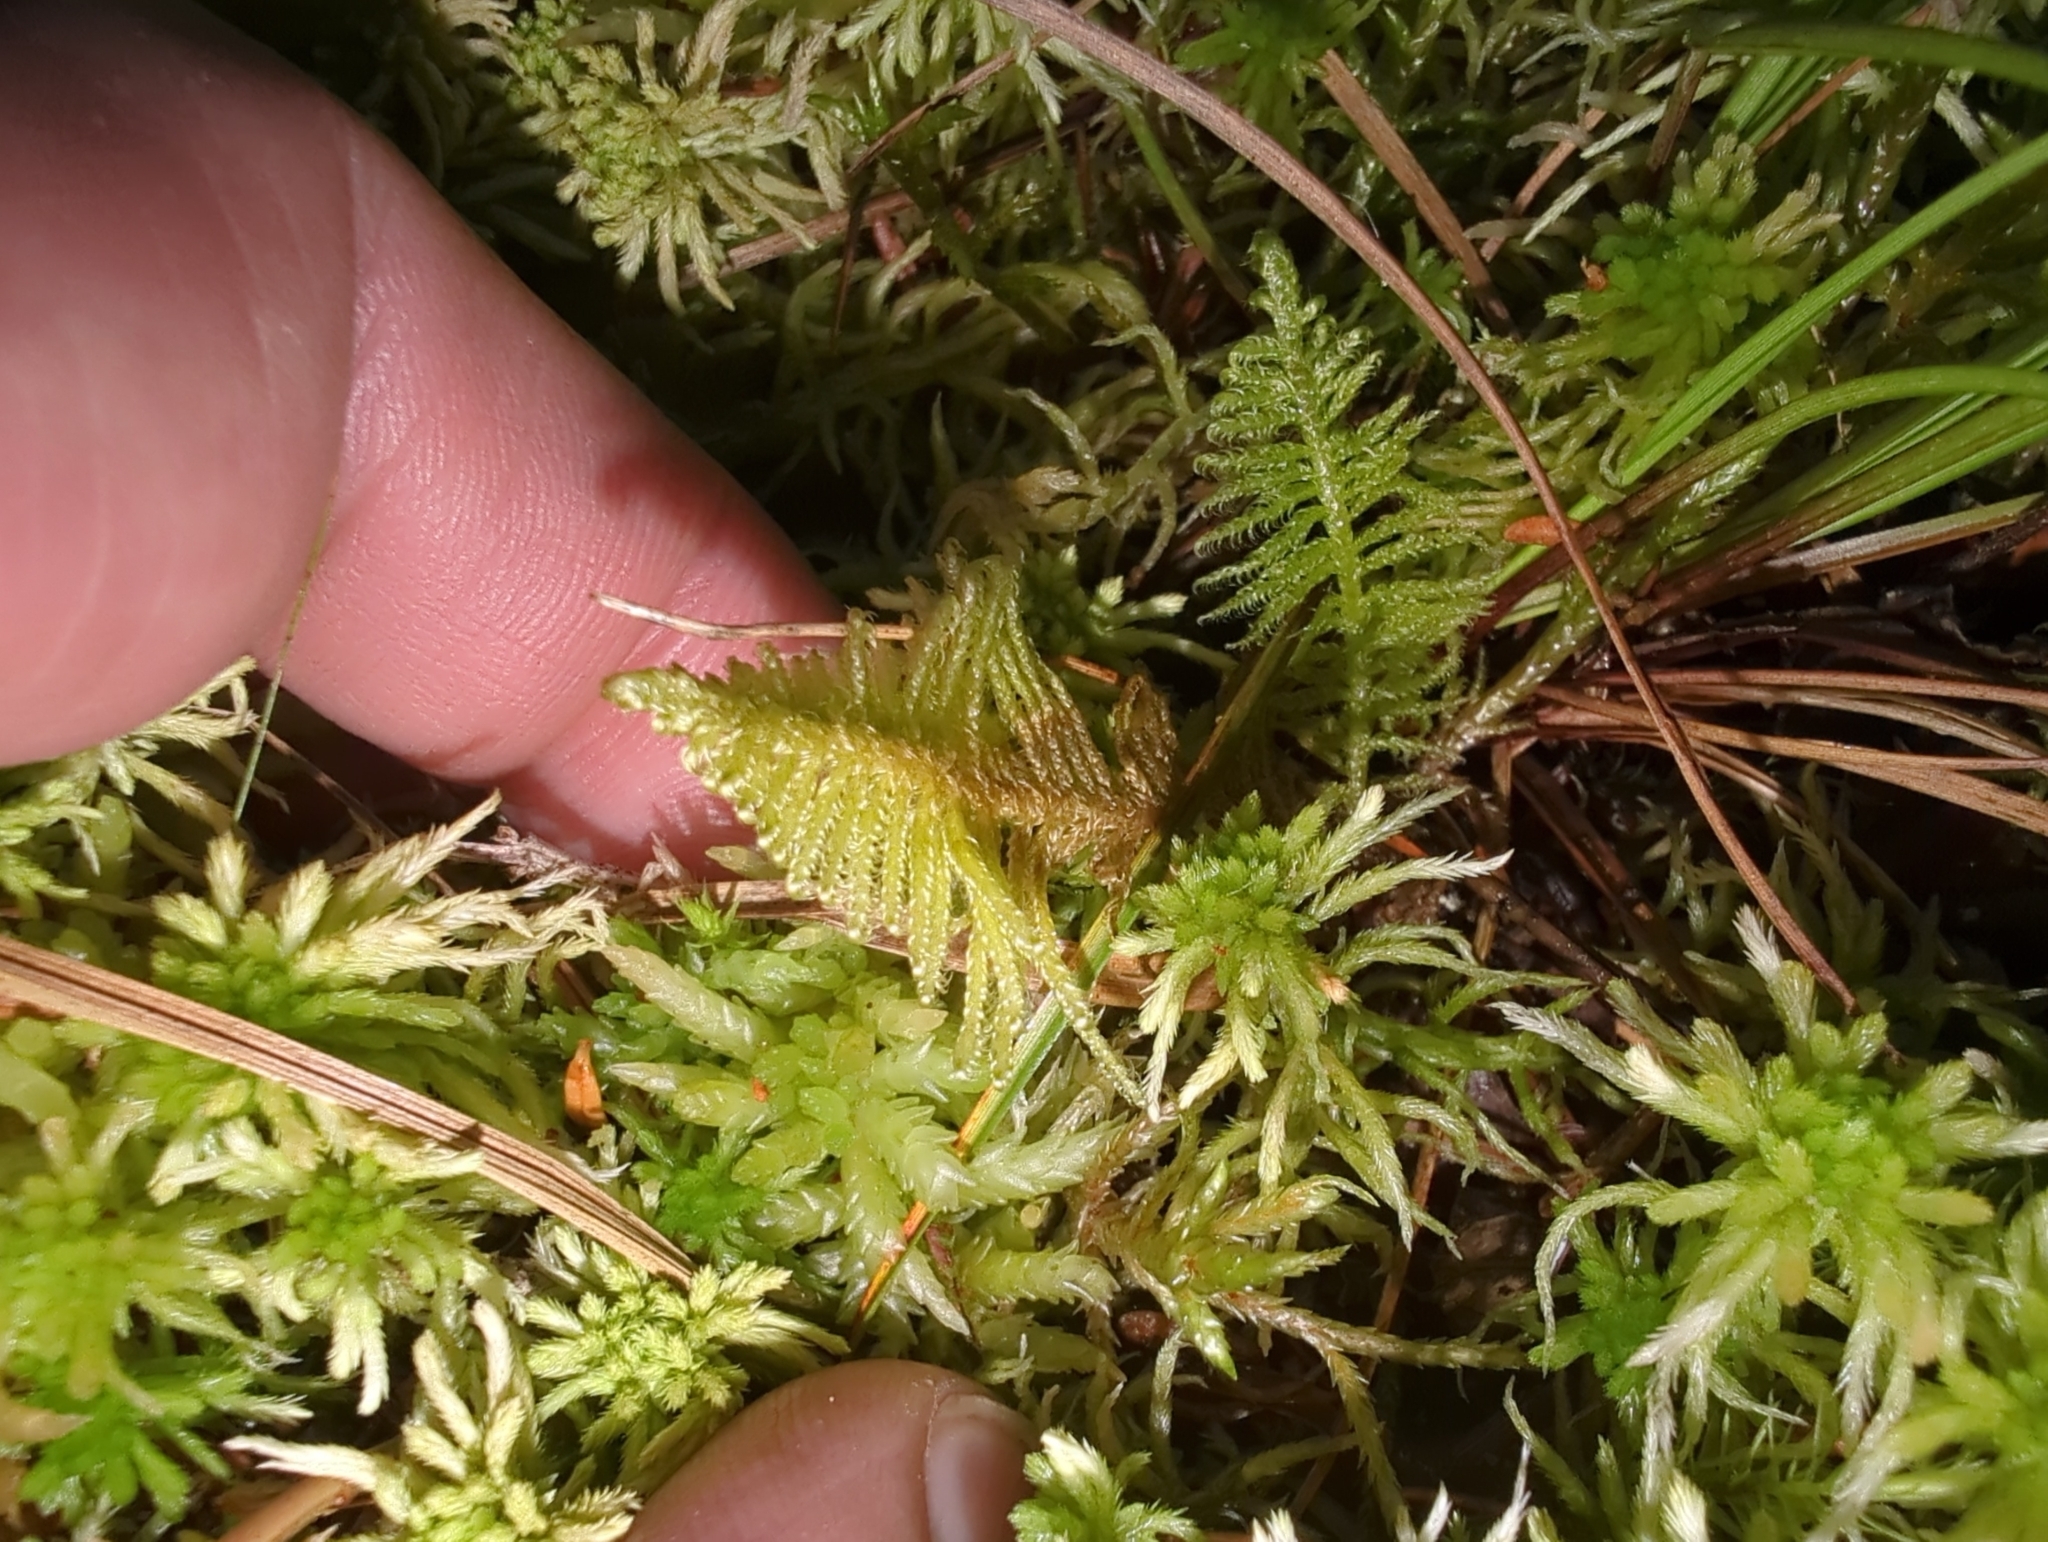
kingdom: Plantae
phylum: Bryophyta
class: Bryopsida
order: Hypnales
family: Pylaisiaceae
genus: Ptilium
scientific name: Ptilium crista-castrensis
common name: Knight's plume moss
